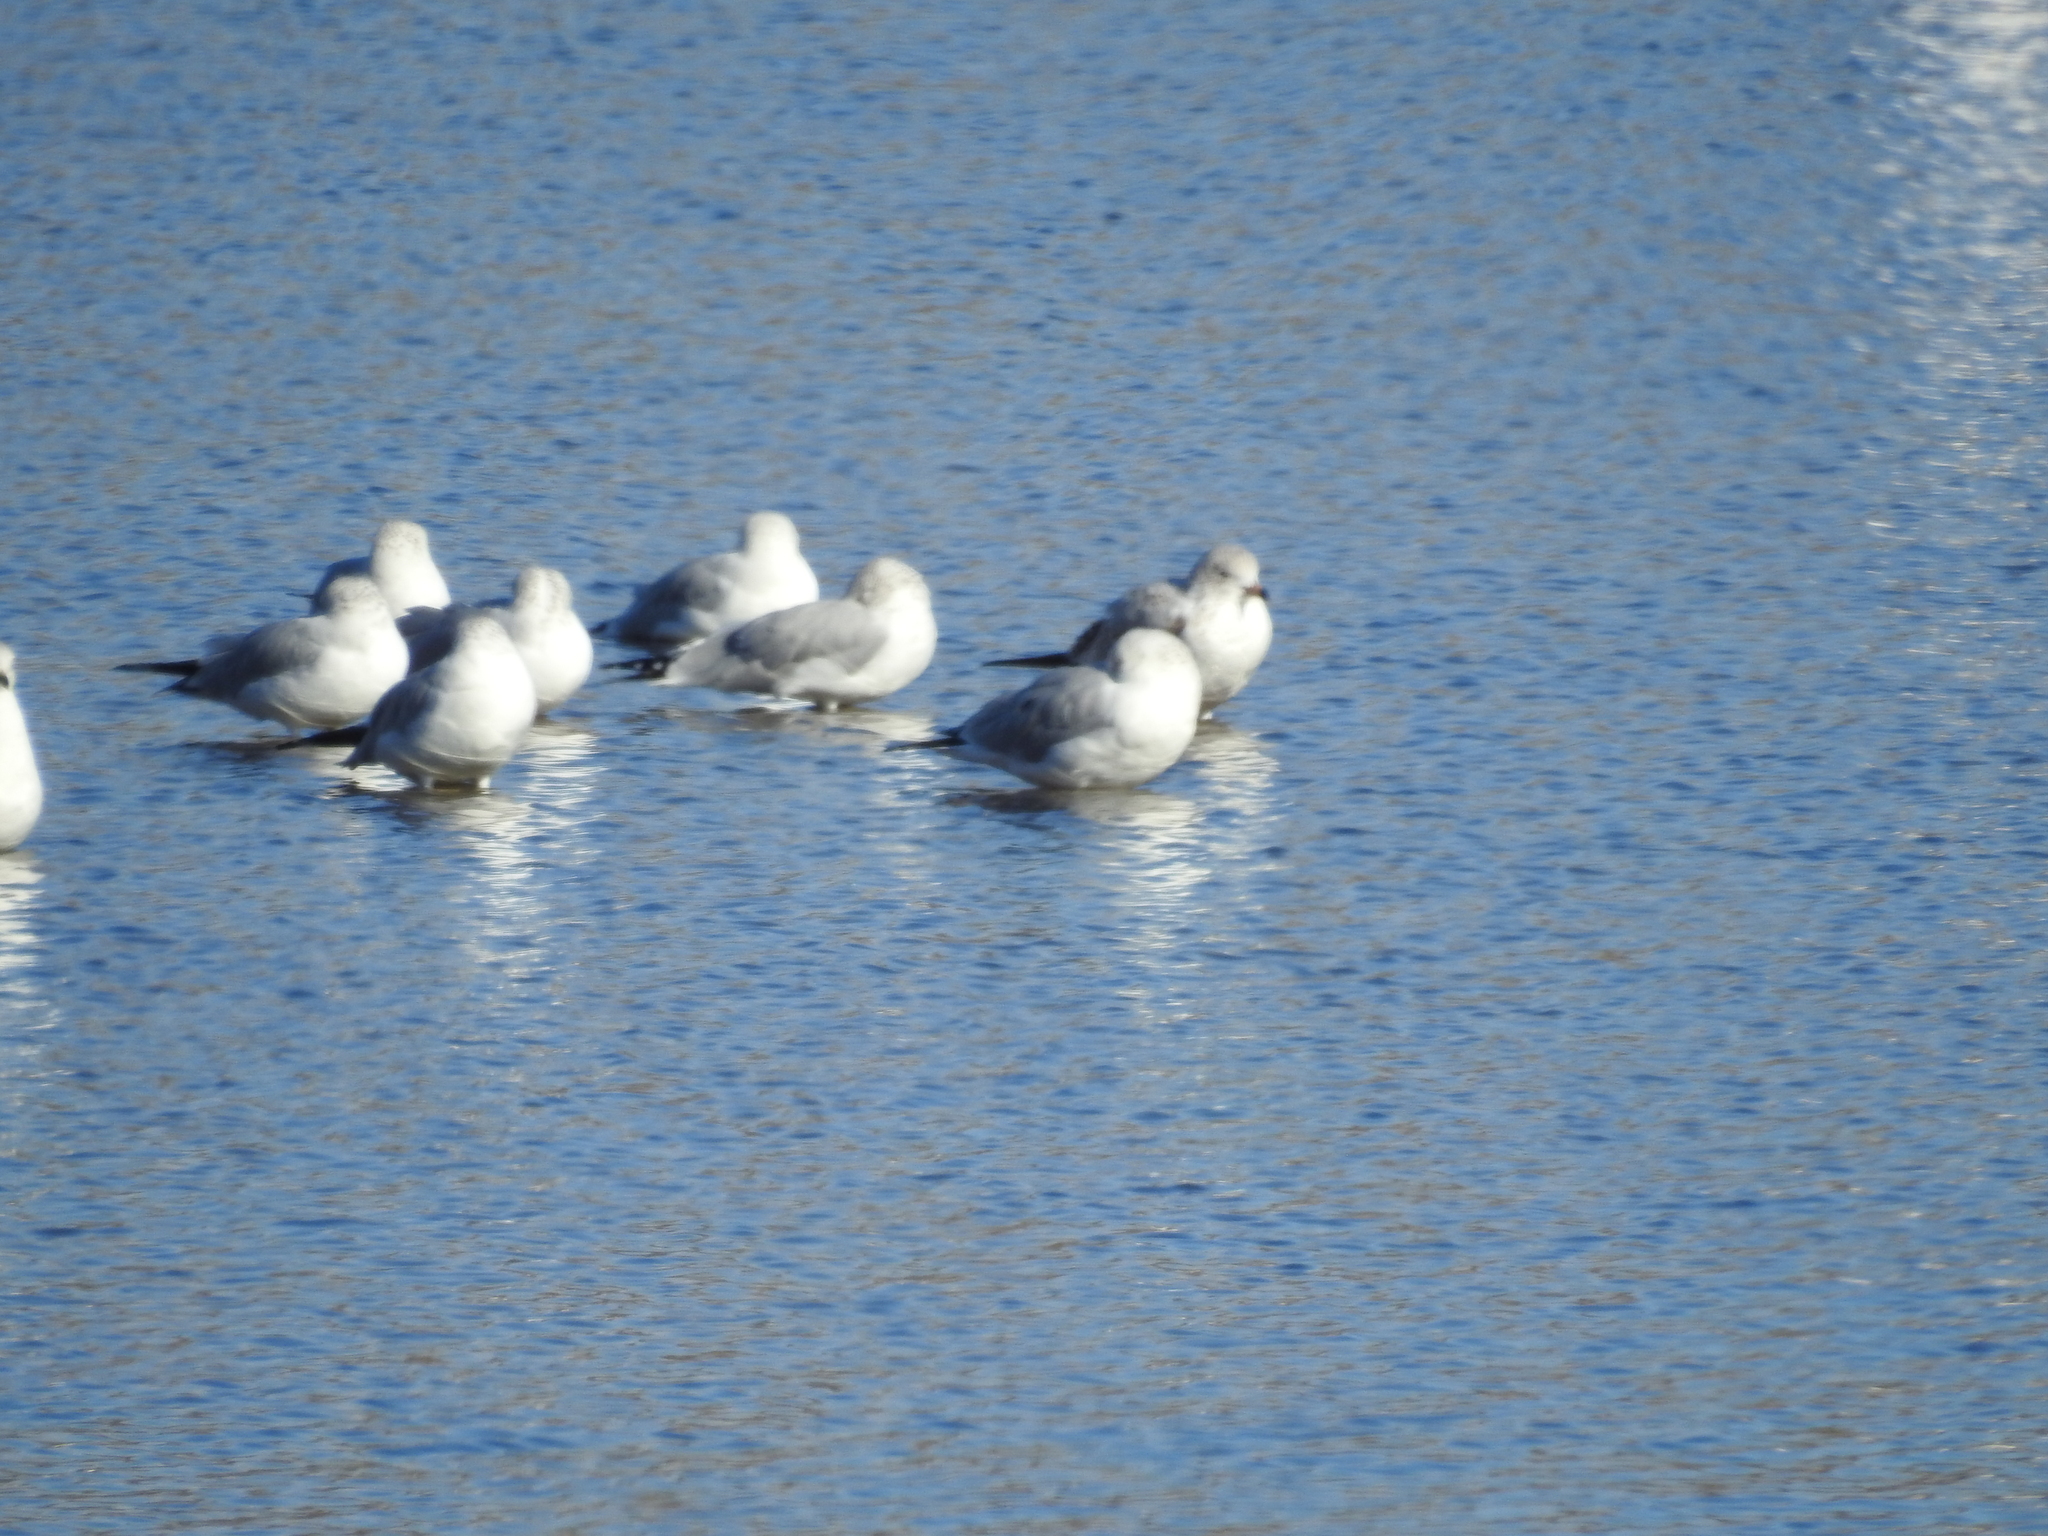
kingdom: Animalia
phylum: Chordata
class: Aves
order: Charadriiformes
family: Laridae
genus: Larus
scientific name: Larus delawarensis
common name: Ring-billed gull
